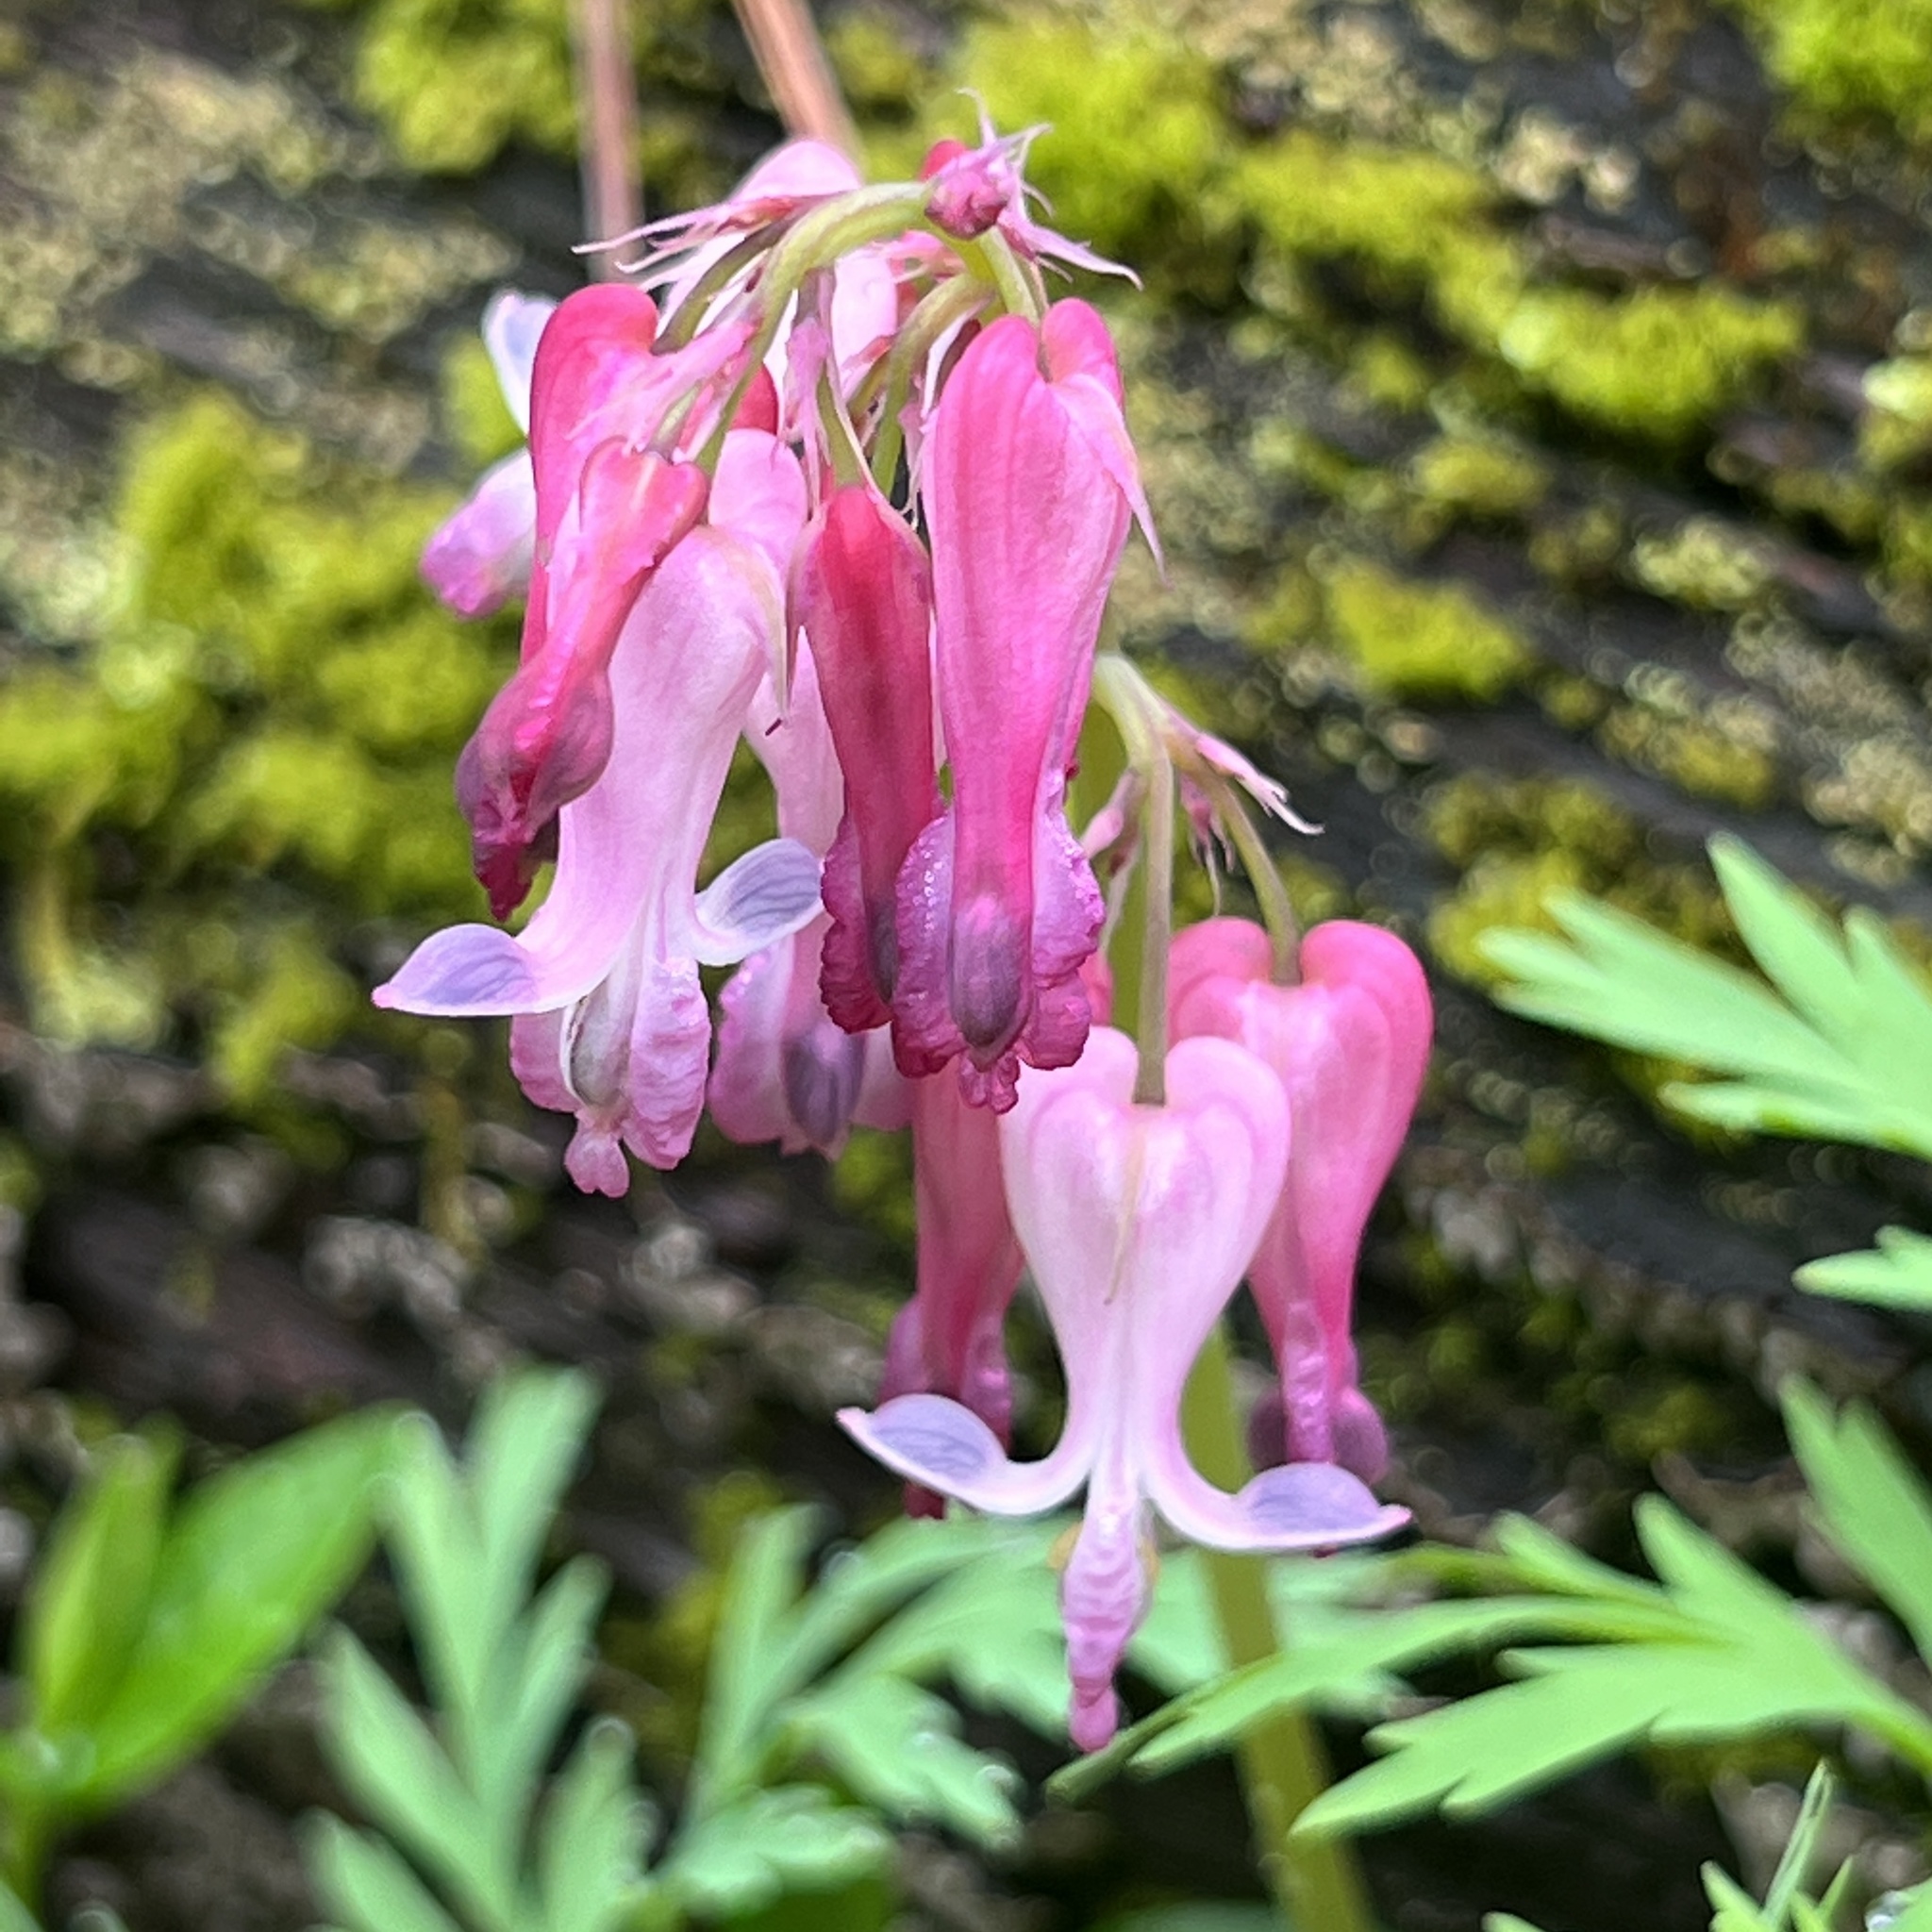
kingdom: Plantae
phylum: Tracheophyta
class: Magnoliopsida
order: Ranunculales
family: Papaveraceae
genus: Dicentra
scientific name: Dicentra eximia
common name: Turkey-corn
